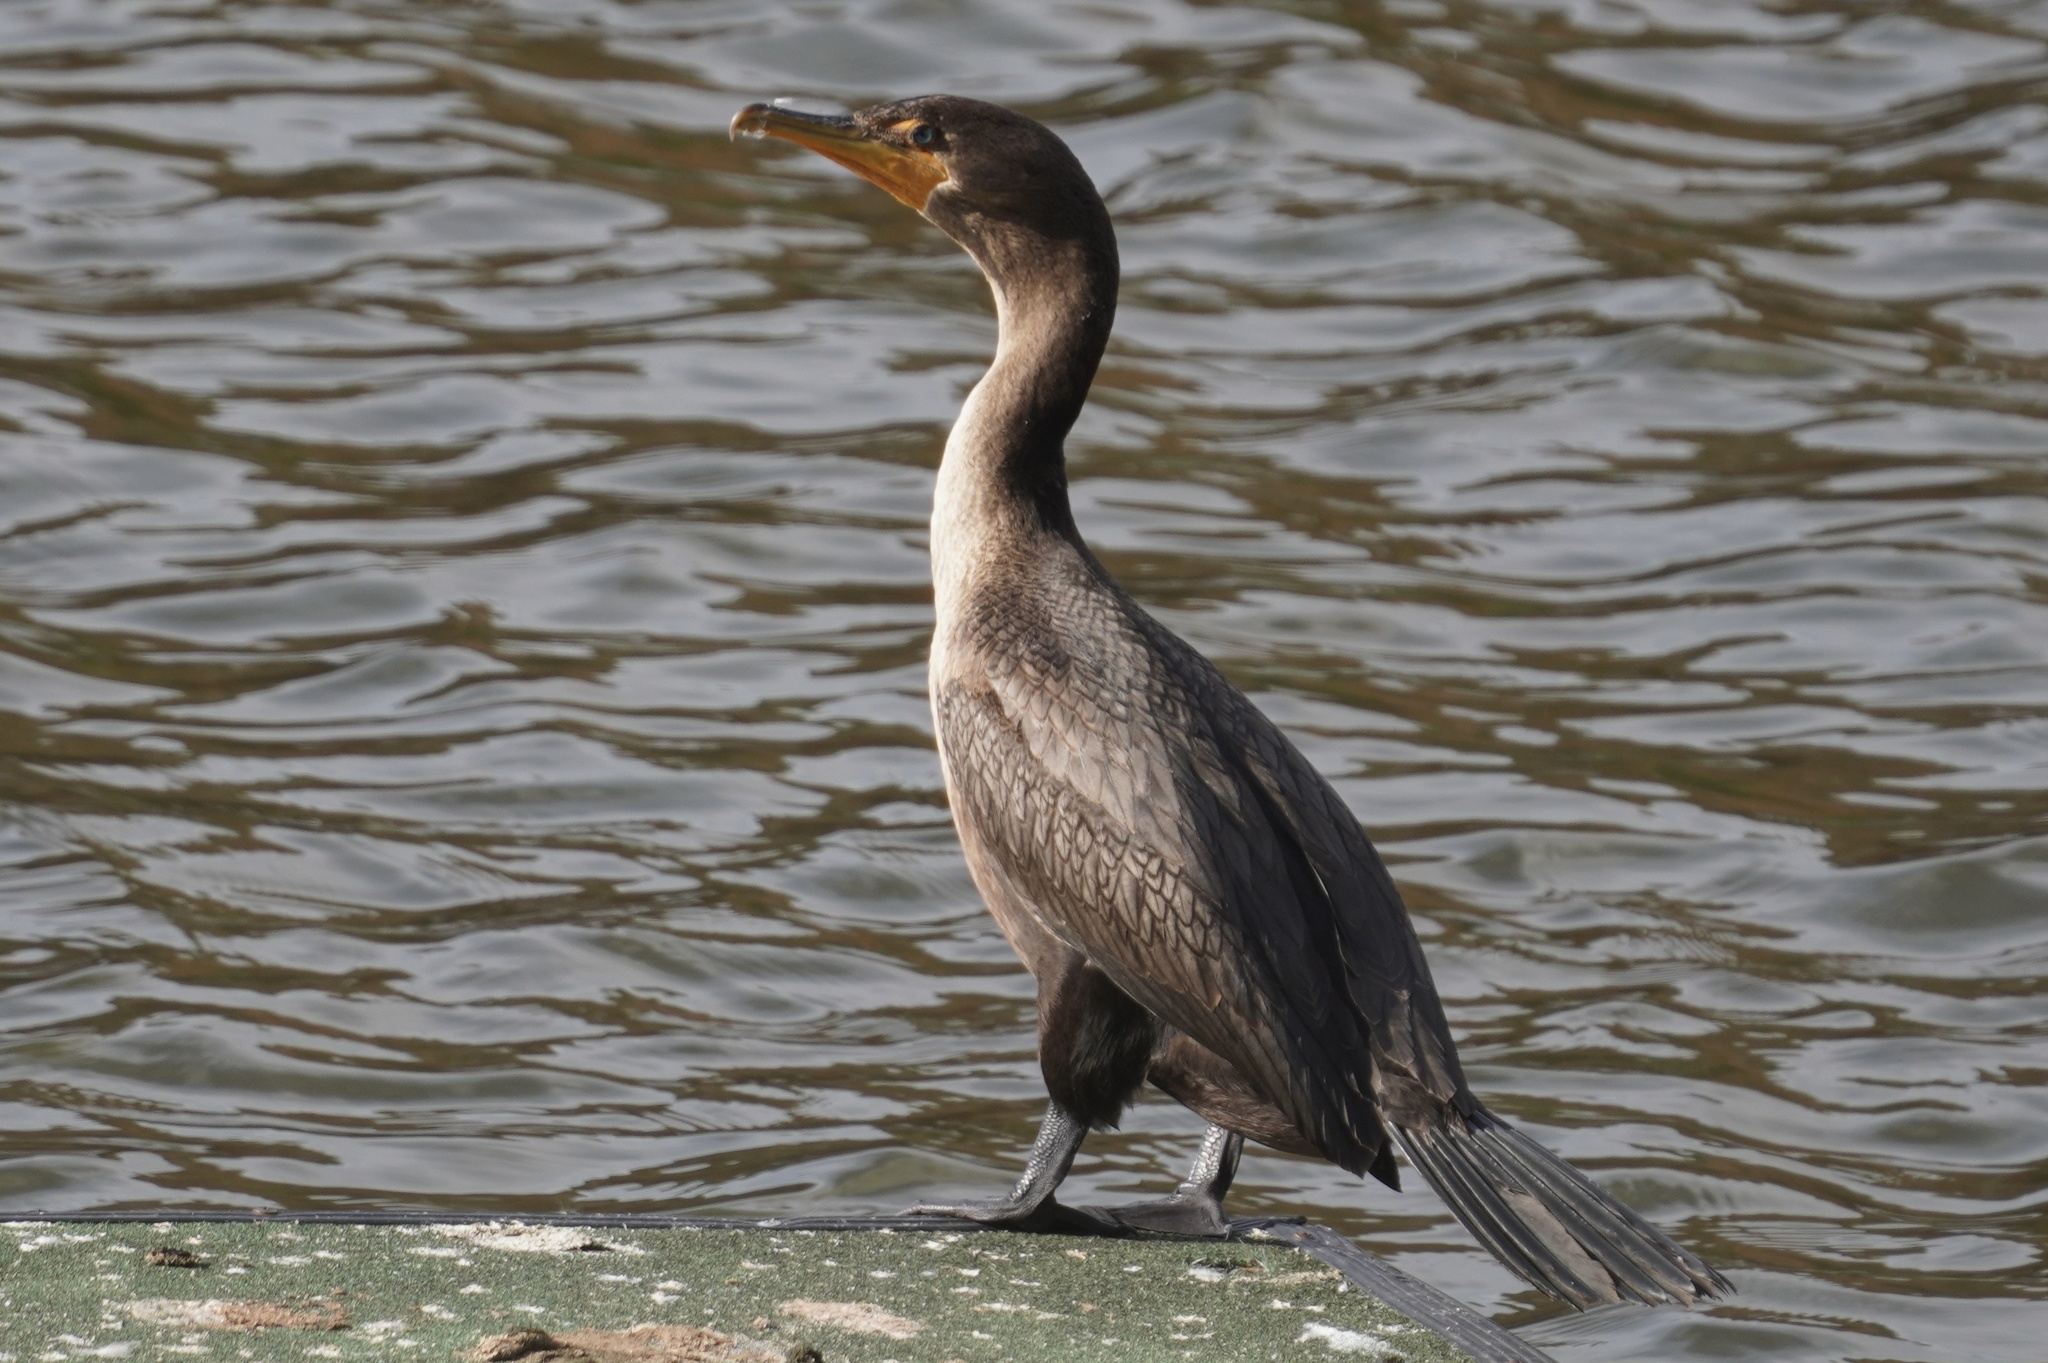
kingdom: Animalia
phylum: Chordata
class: Aves
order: Suliformes
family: Phalacrocoracidae
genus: Phalacrocorax
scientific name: Phalacrocorax auritus
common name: Double-crested cormorant
